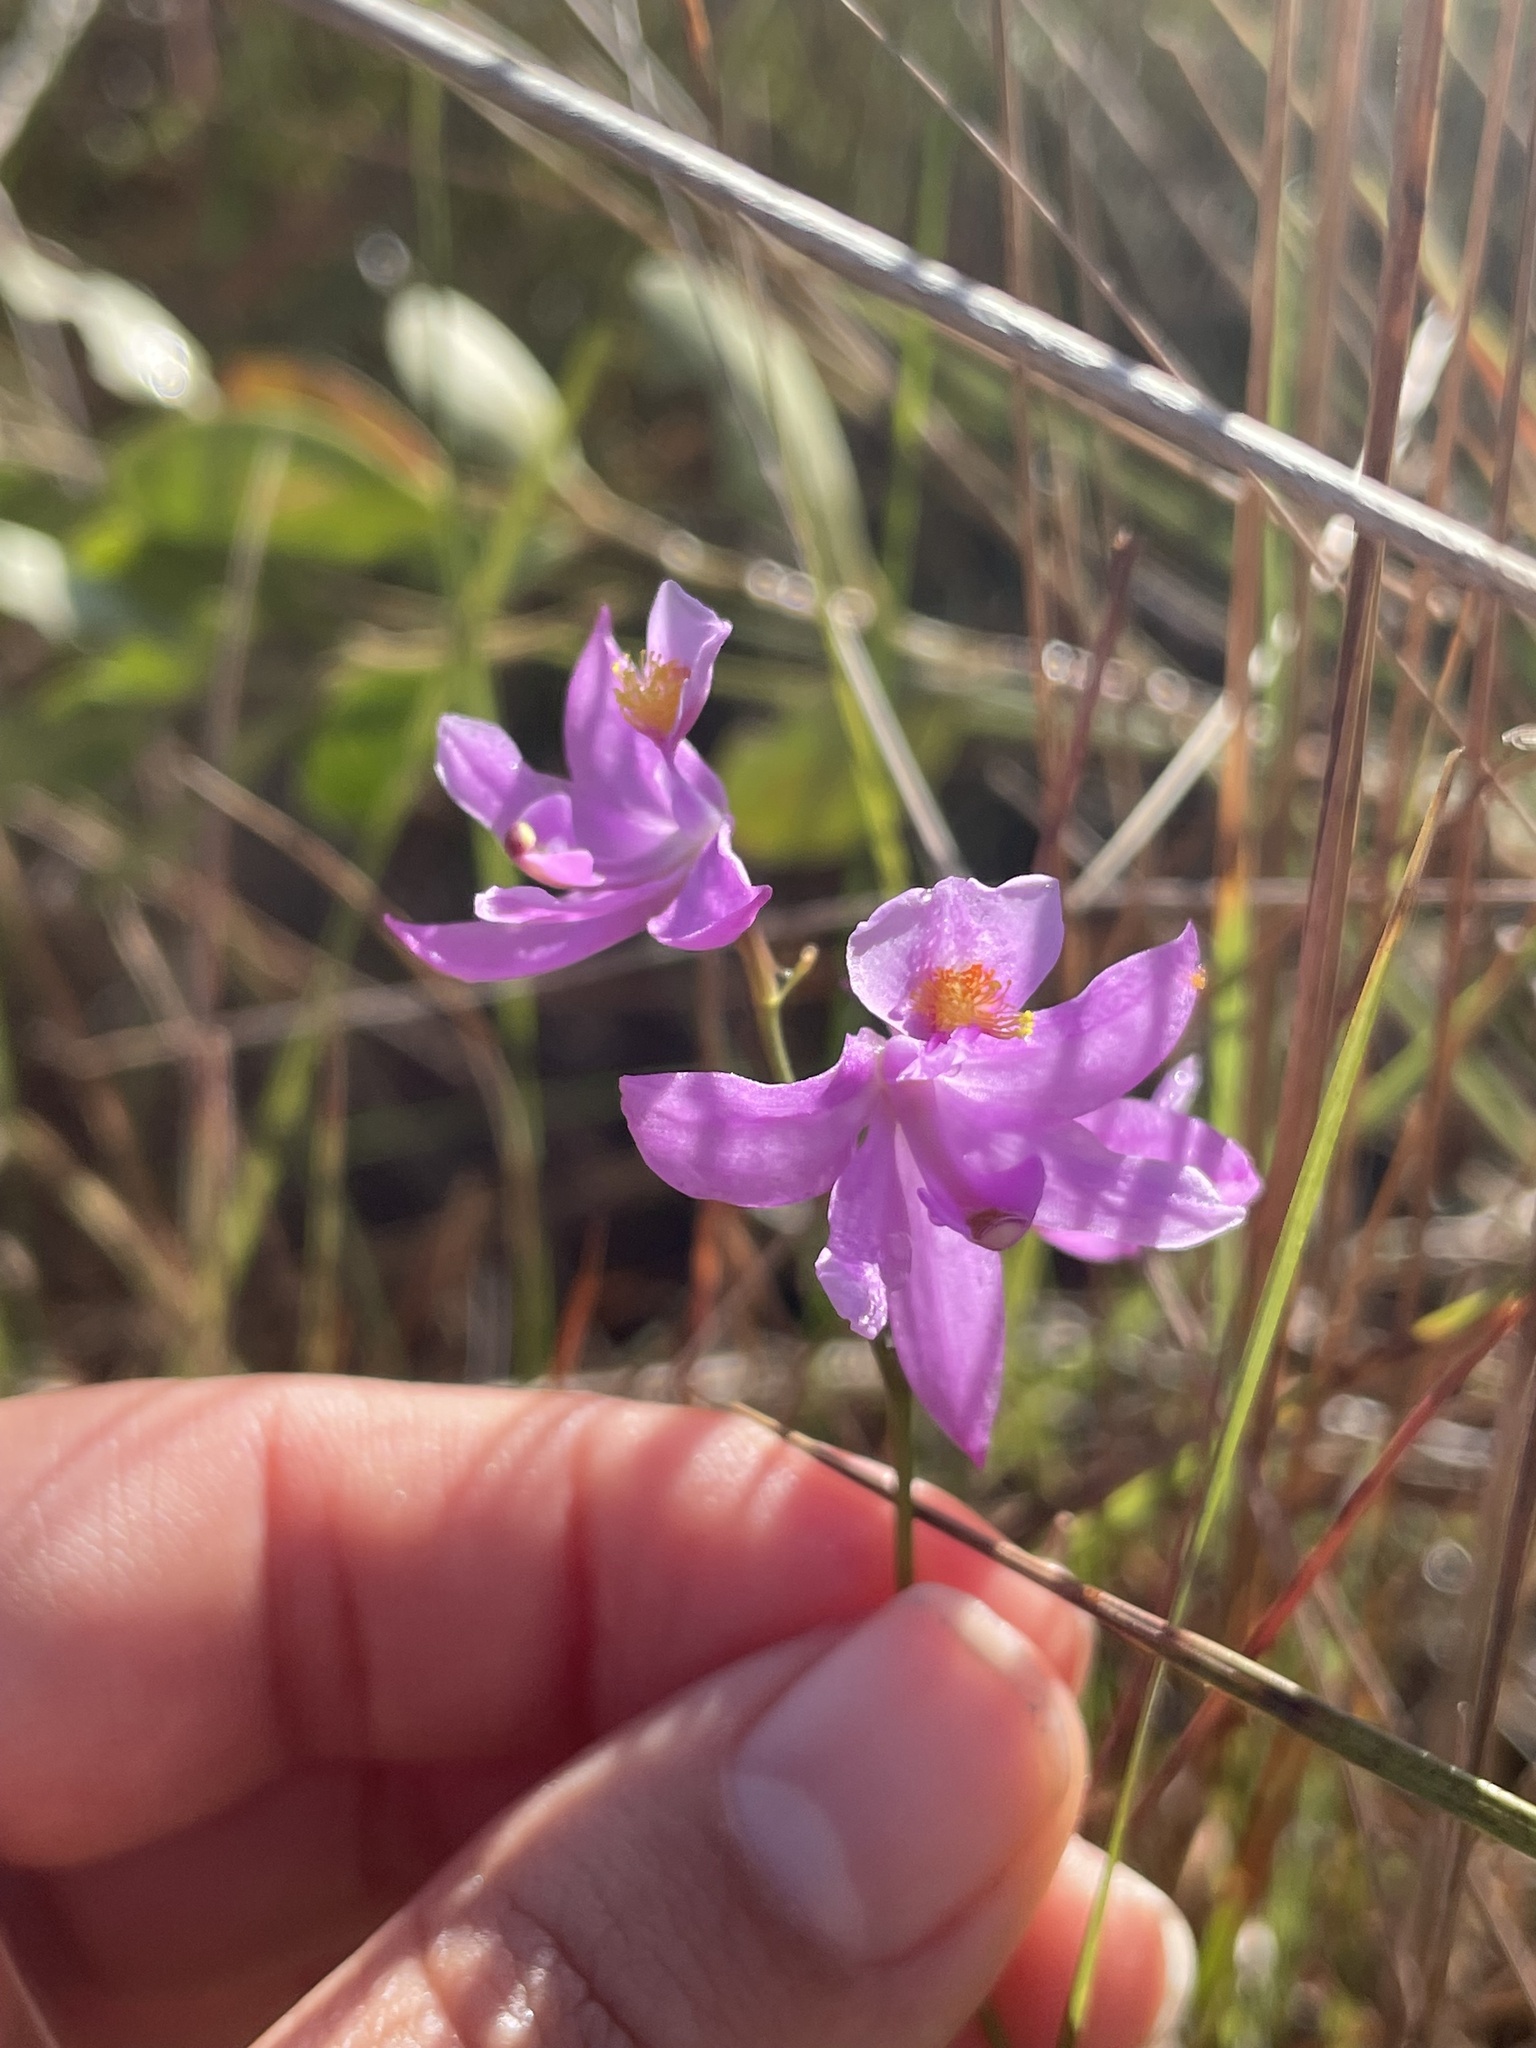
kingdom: Plantae
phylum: Tracheophyta
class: Liliopsida
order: Asparagales
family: Orchidaceae
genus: Calopogon
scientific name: Calopogon barbatus
